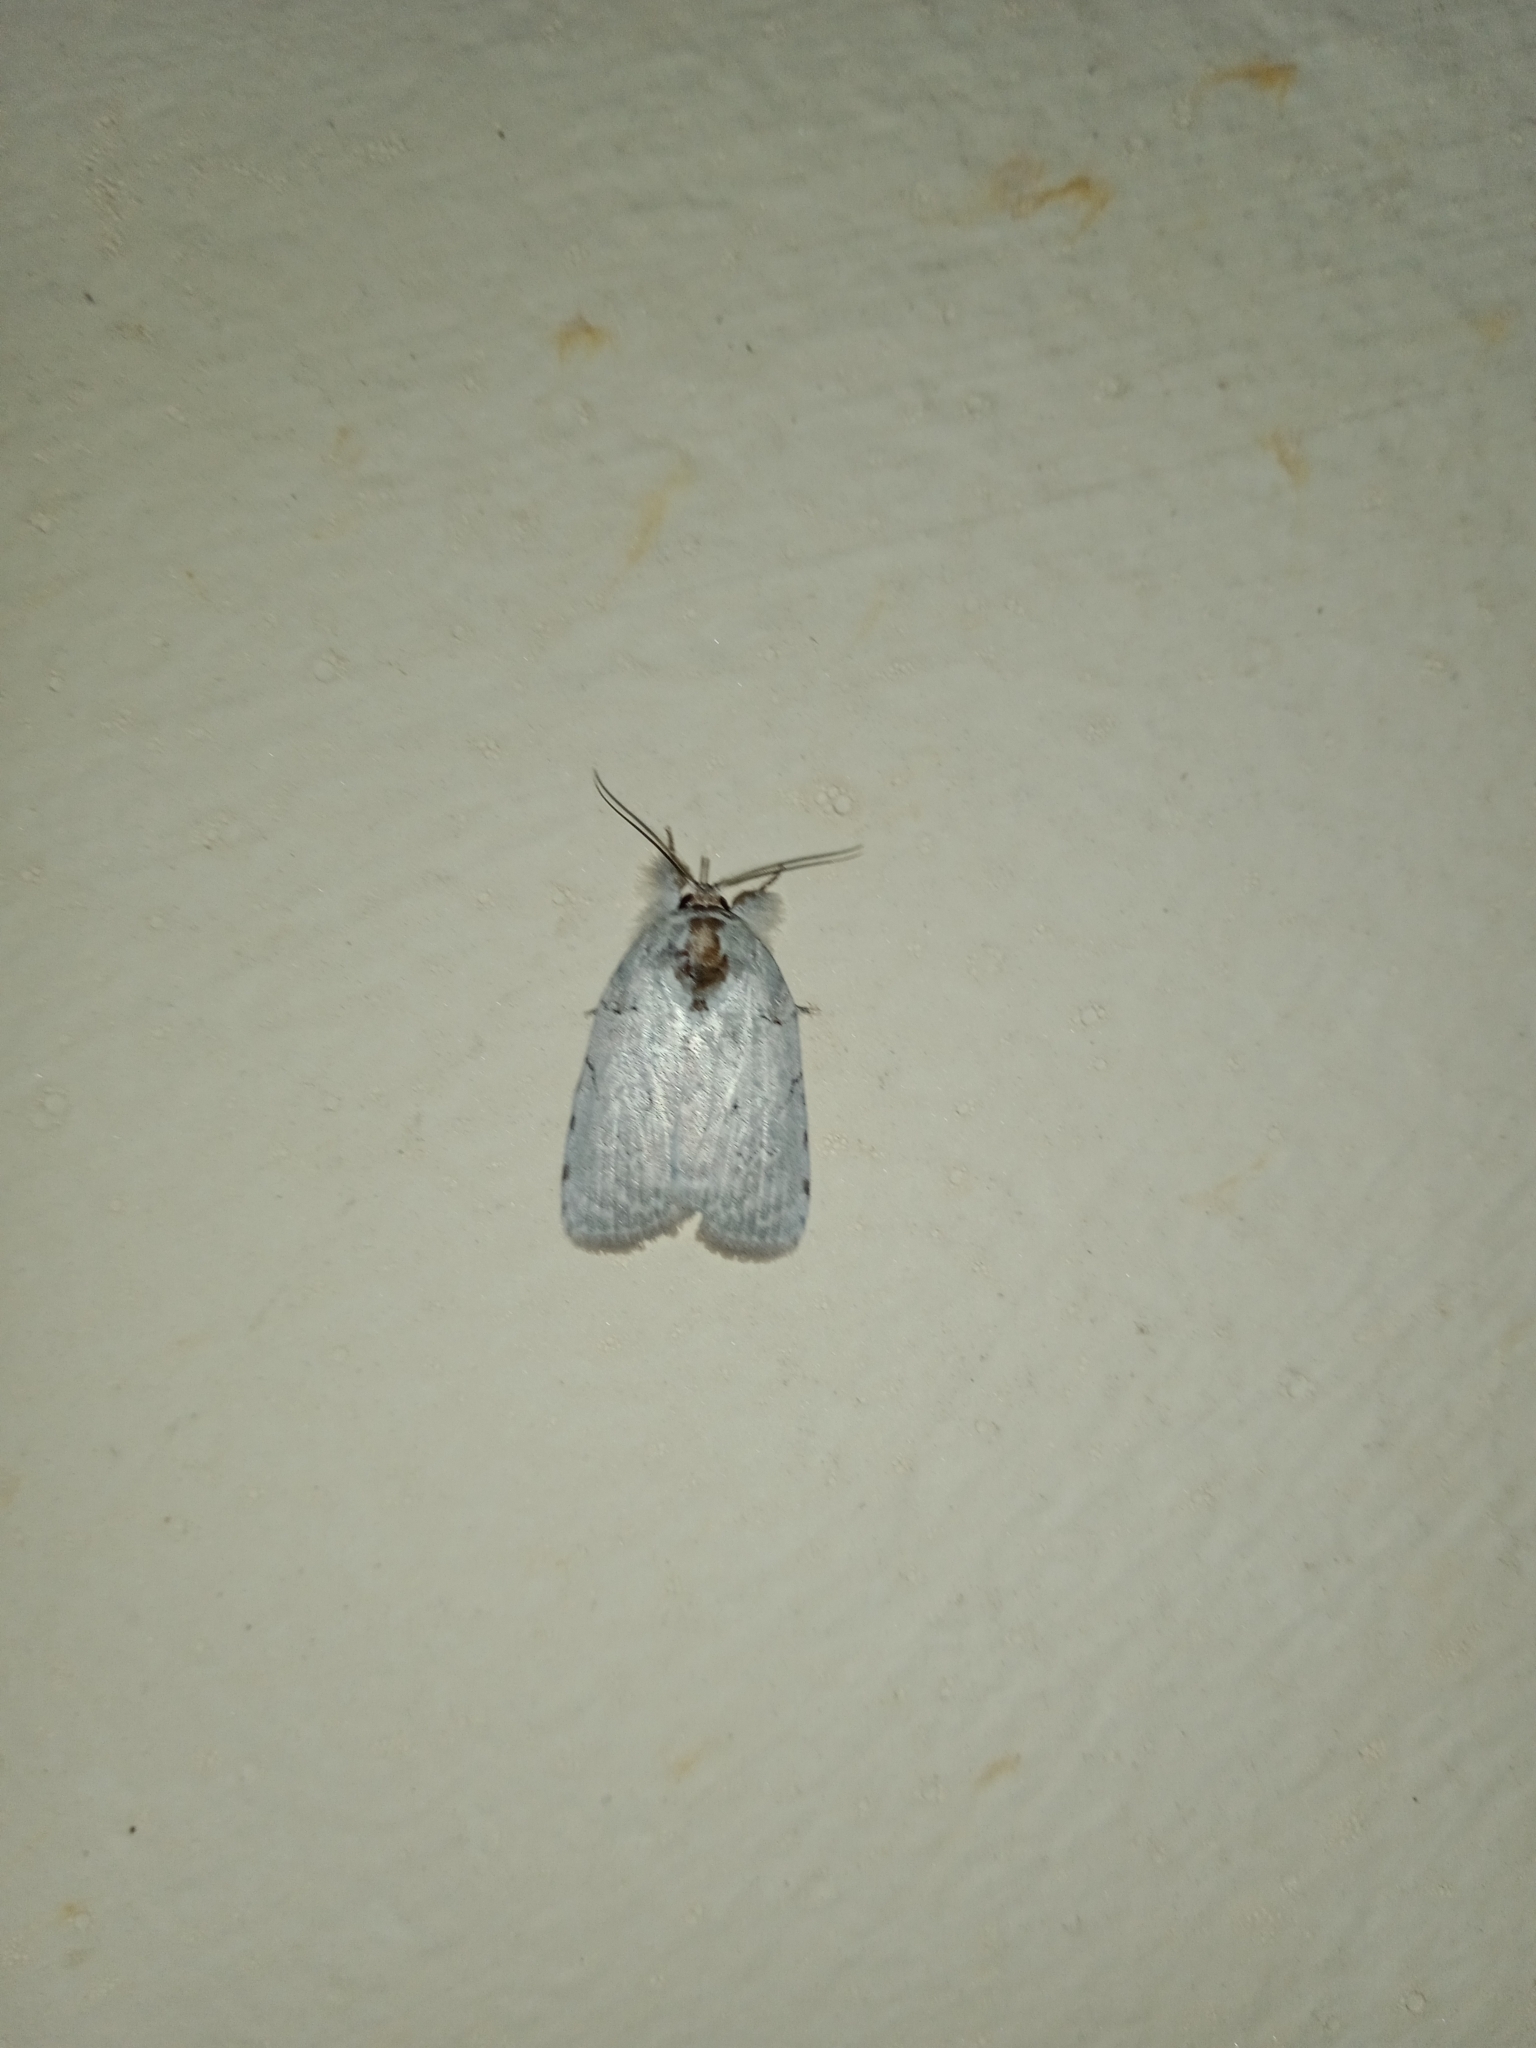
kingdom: Animalia
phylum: Arthropoda
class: Insecta
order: Lepidoptera
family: Nolidae
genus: Ptisciana
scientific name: Ptisciana seminivea
